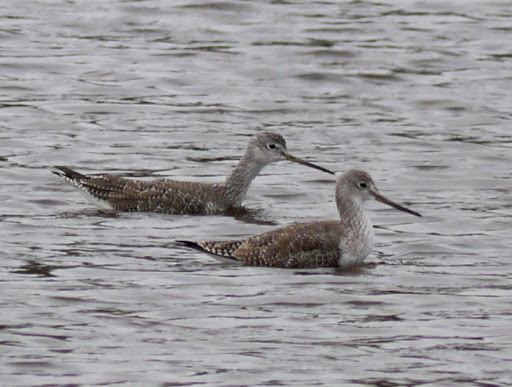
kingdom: Animalia
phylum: Chordata
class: Aves
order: Charadriiformes
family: Scolopacidae
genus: Tringa
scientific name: Tringa melanoleuca
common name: Greater yellowlegs
